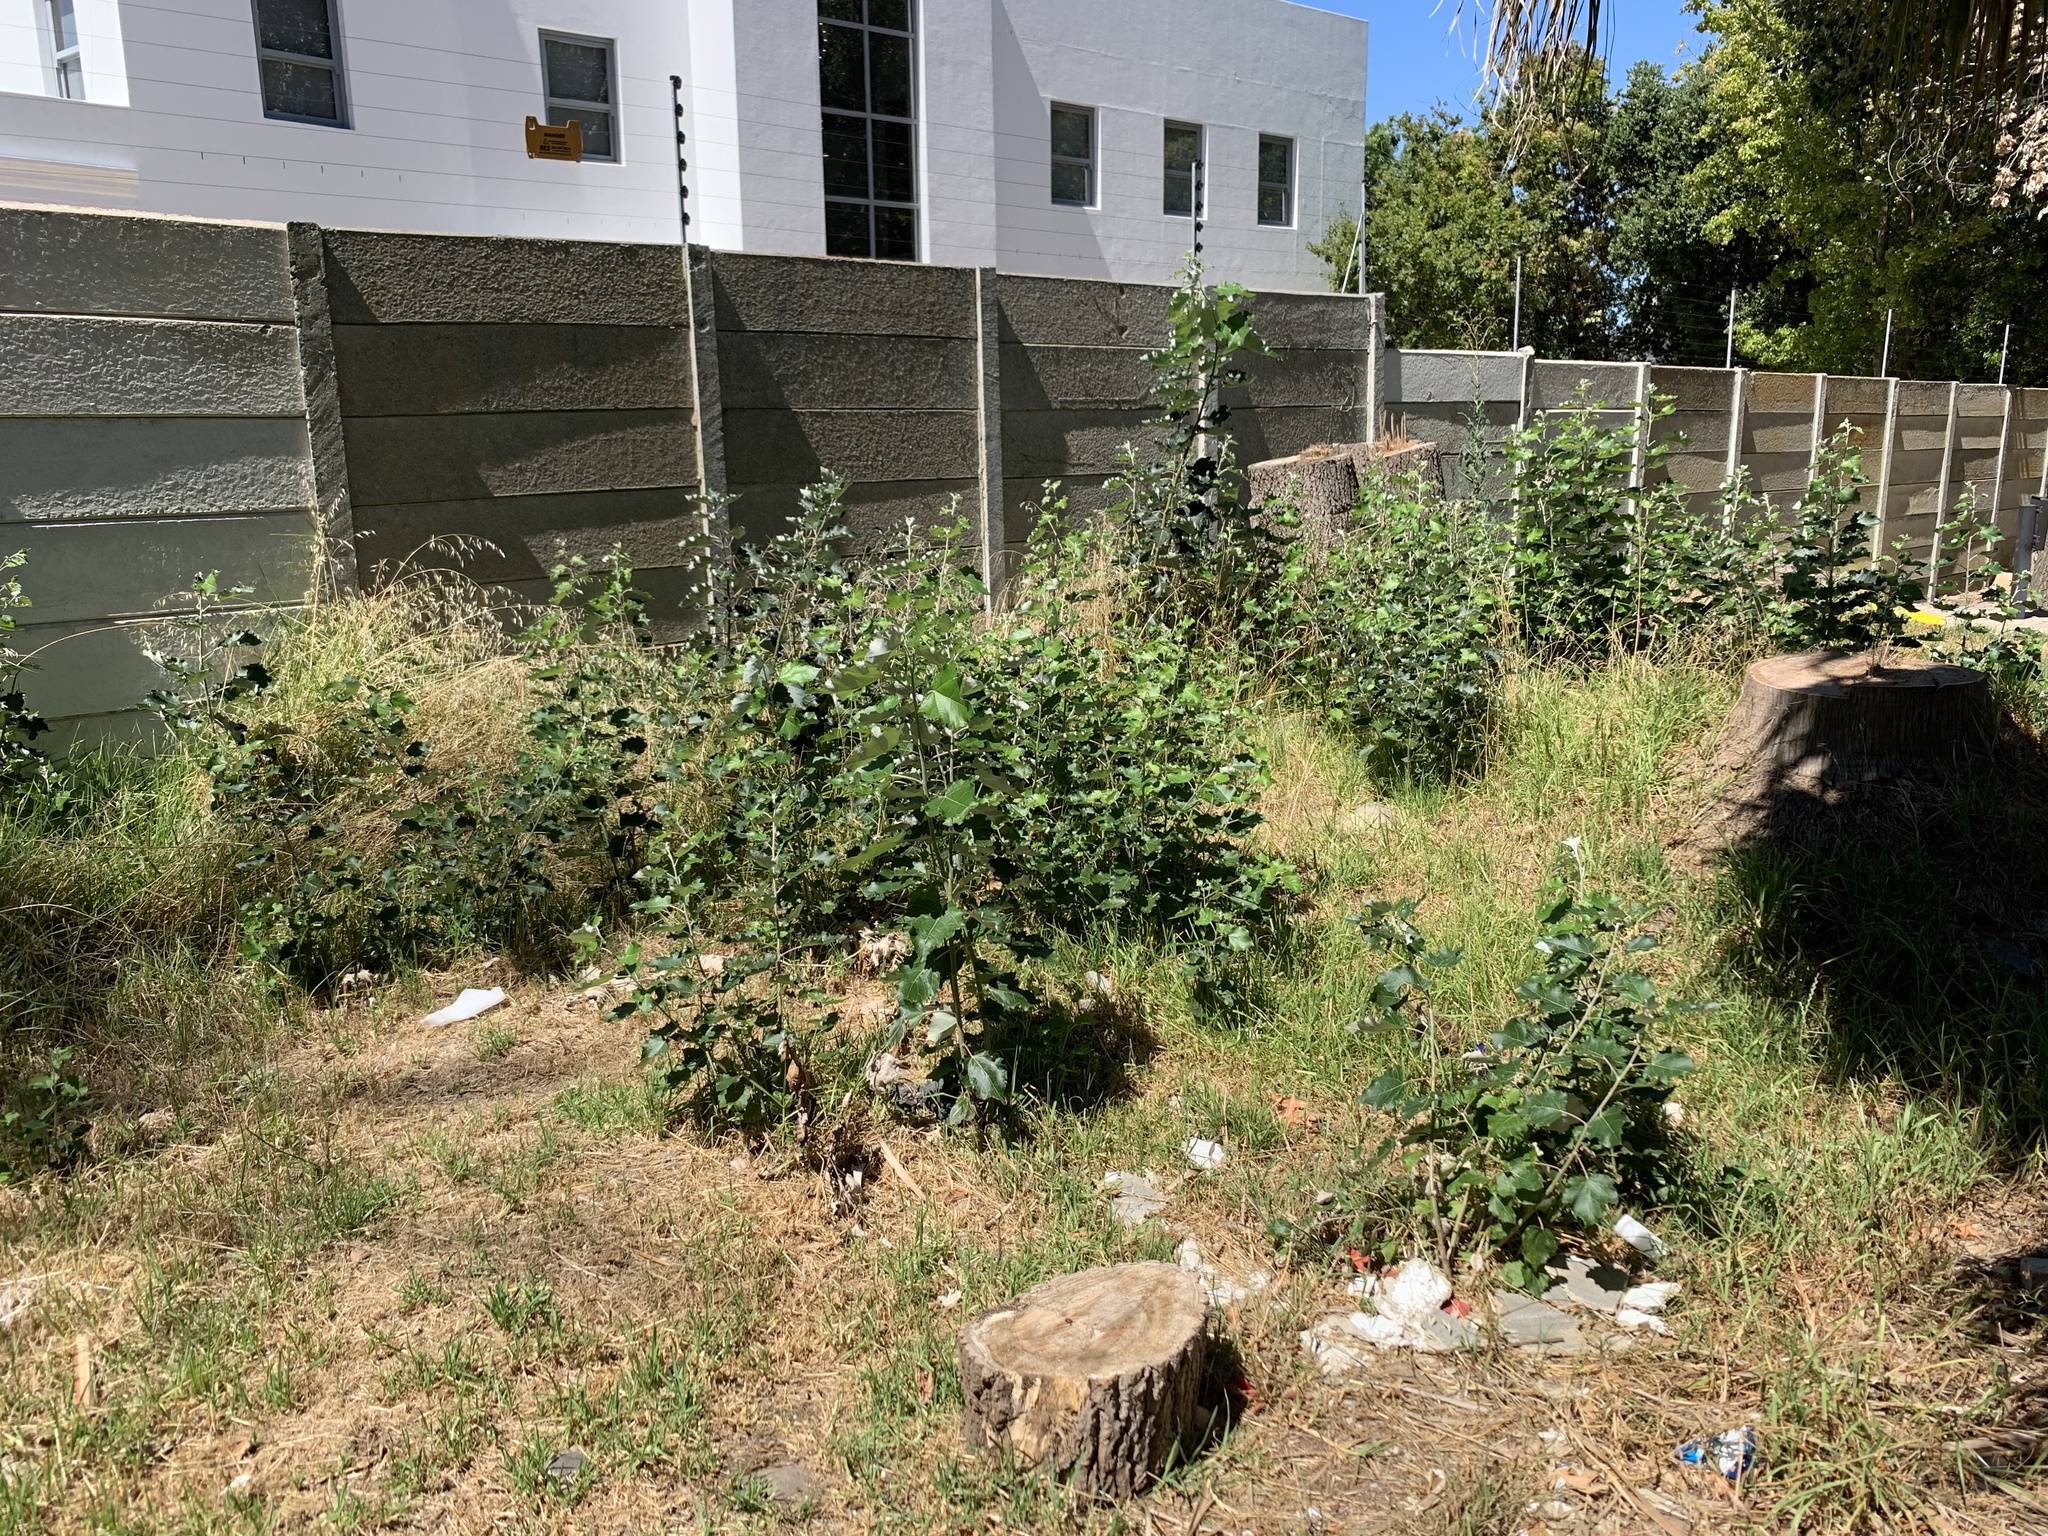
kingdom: Plantae
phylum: Tracheophyta
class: Magnoliopsida
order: Malpighiales
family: Salicaceae
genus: Populus
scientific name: Populus canescens
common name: Gray poplar
